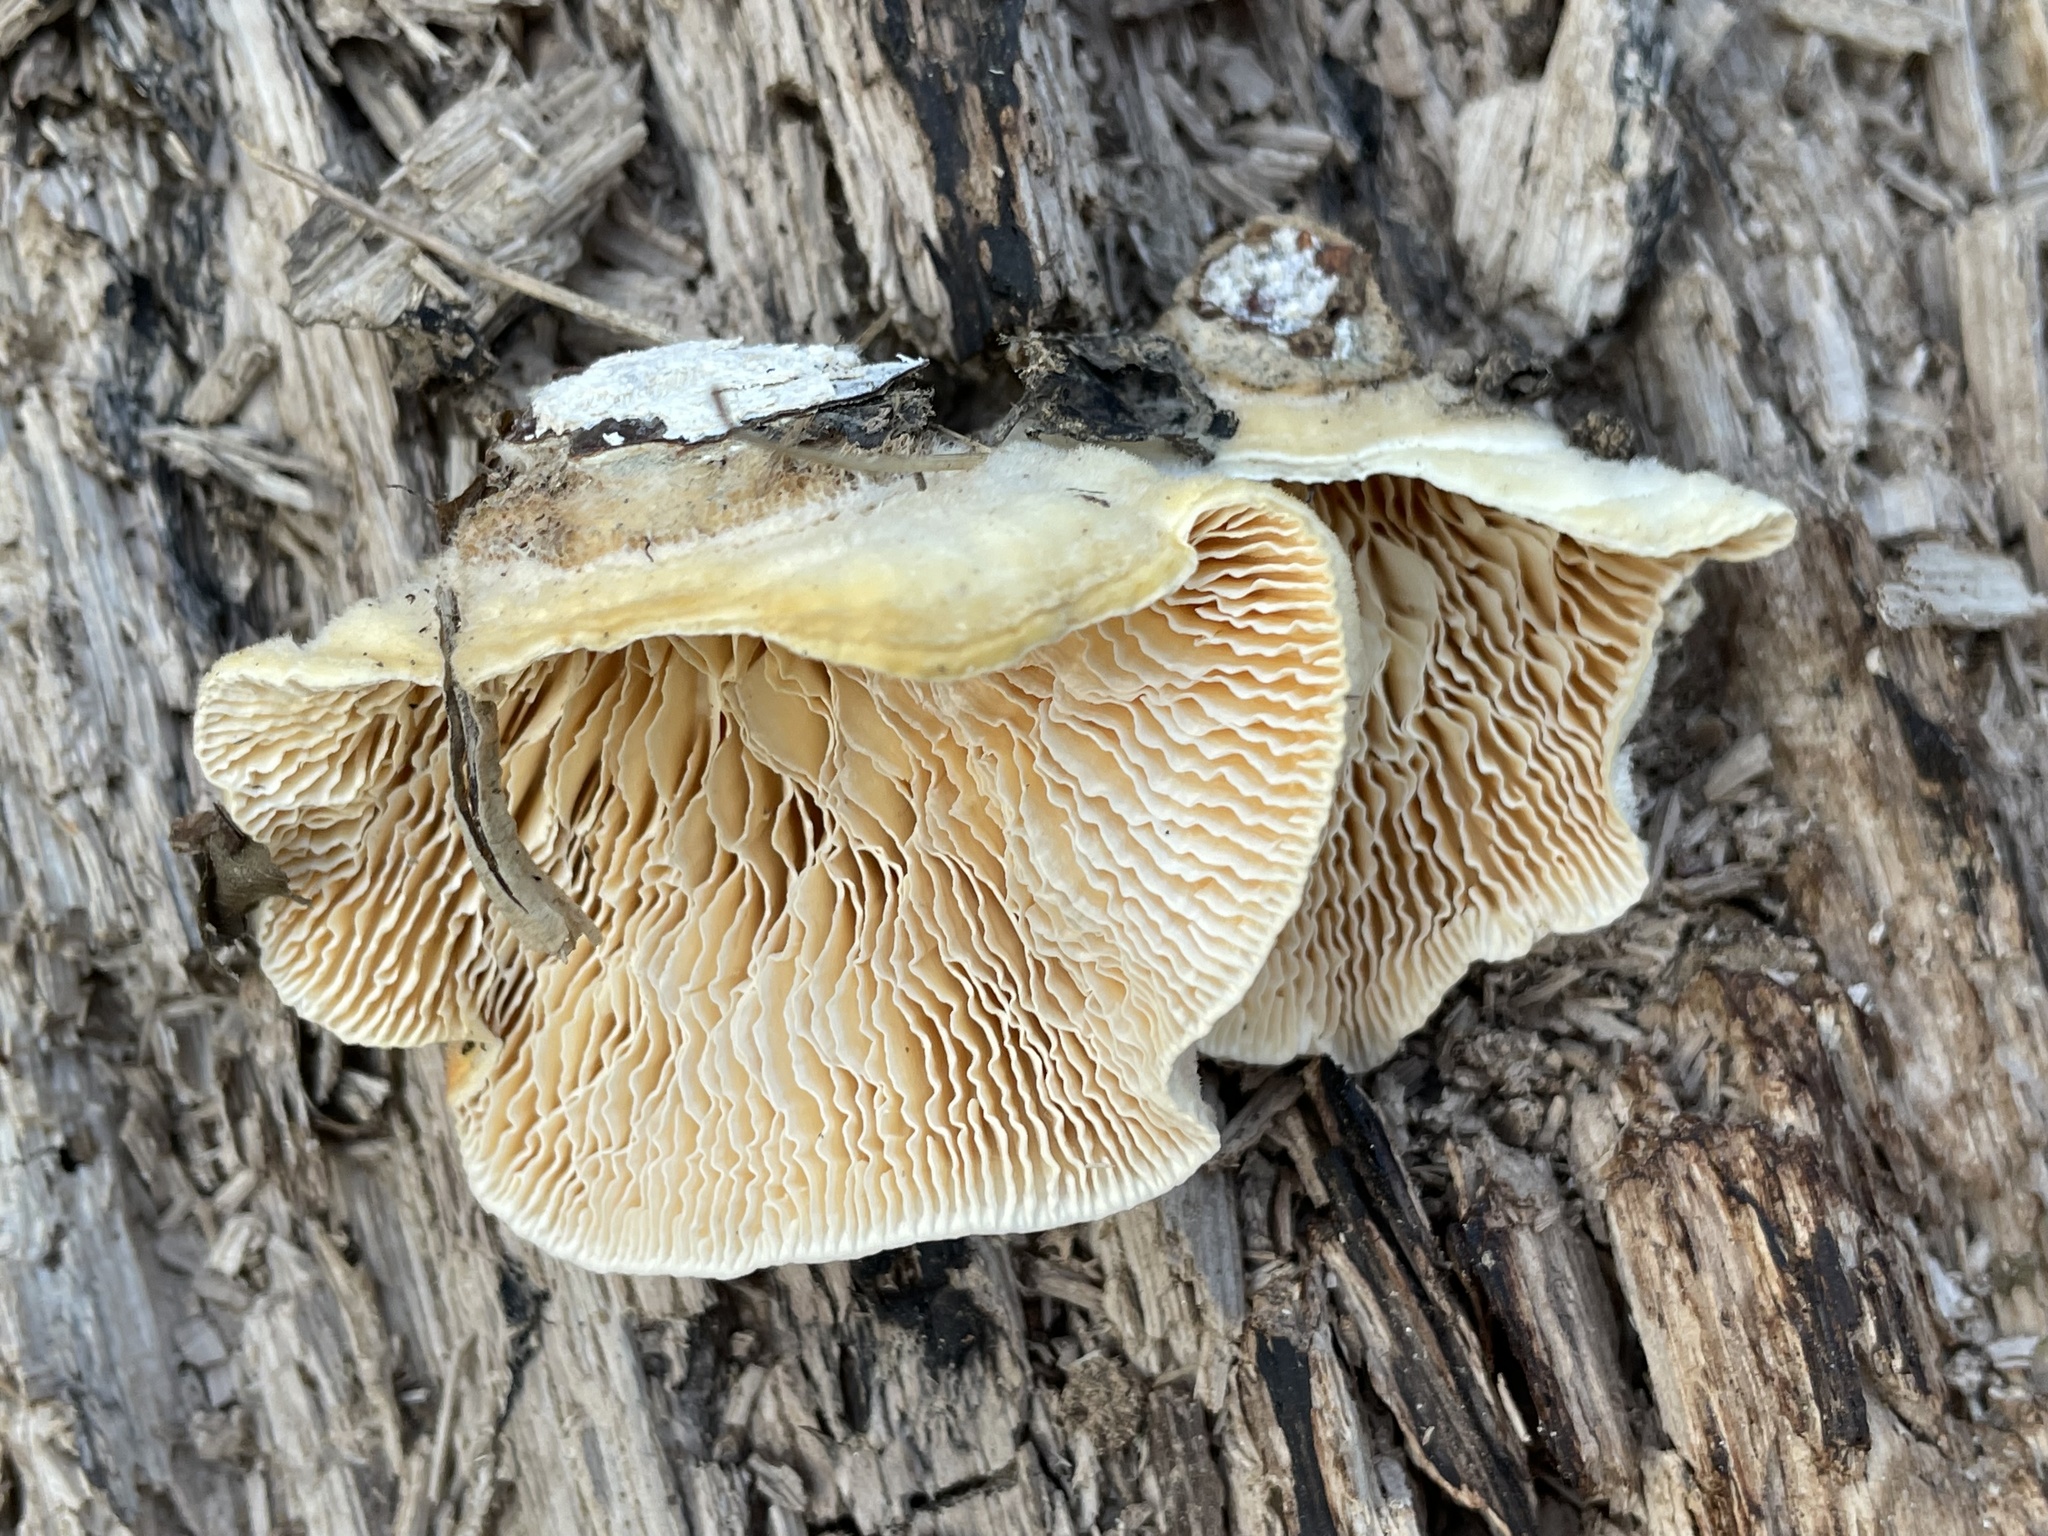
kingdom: Fungi
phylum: Basidiomycota
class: Agaricomycetes
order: Polyporales
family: Polyporaceae
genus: Lenzites
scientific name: Lenzites betulinus
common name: Birch mazegill
